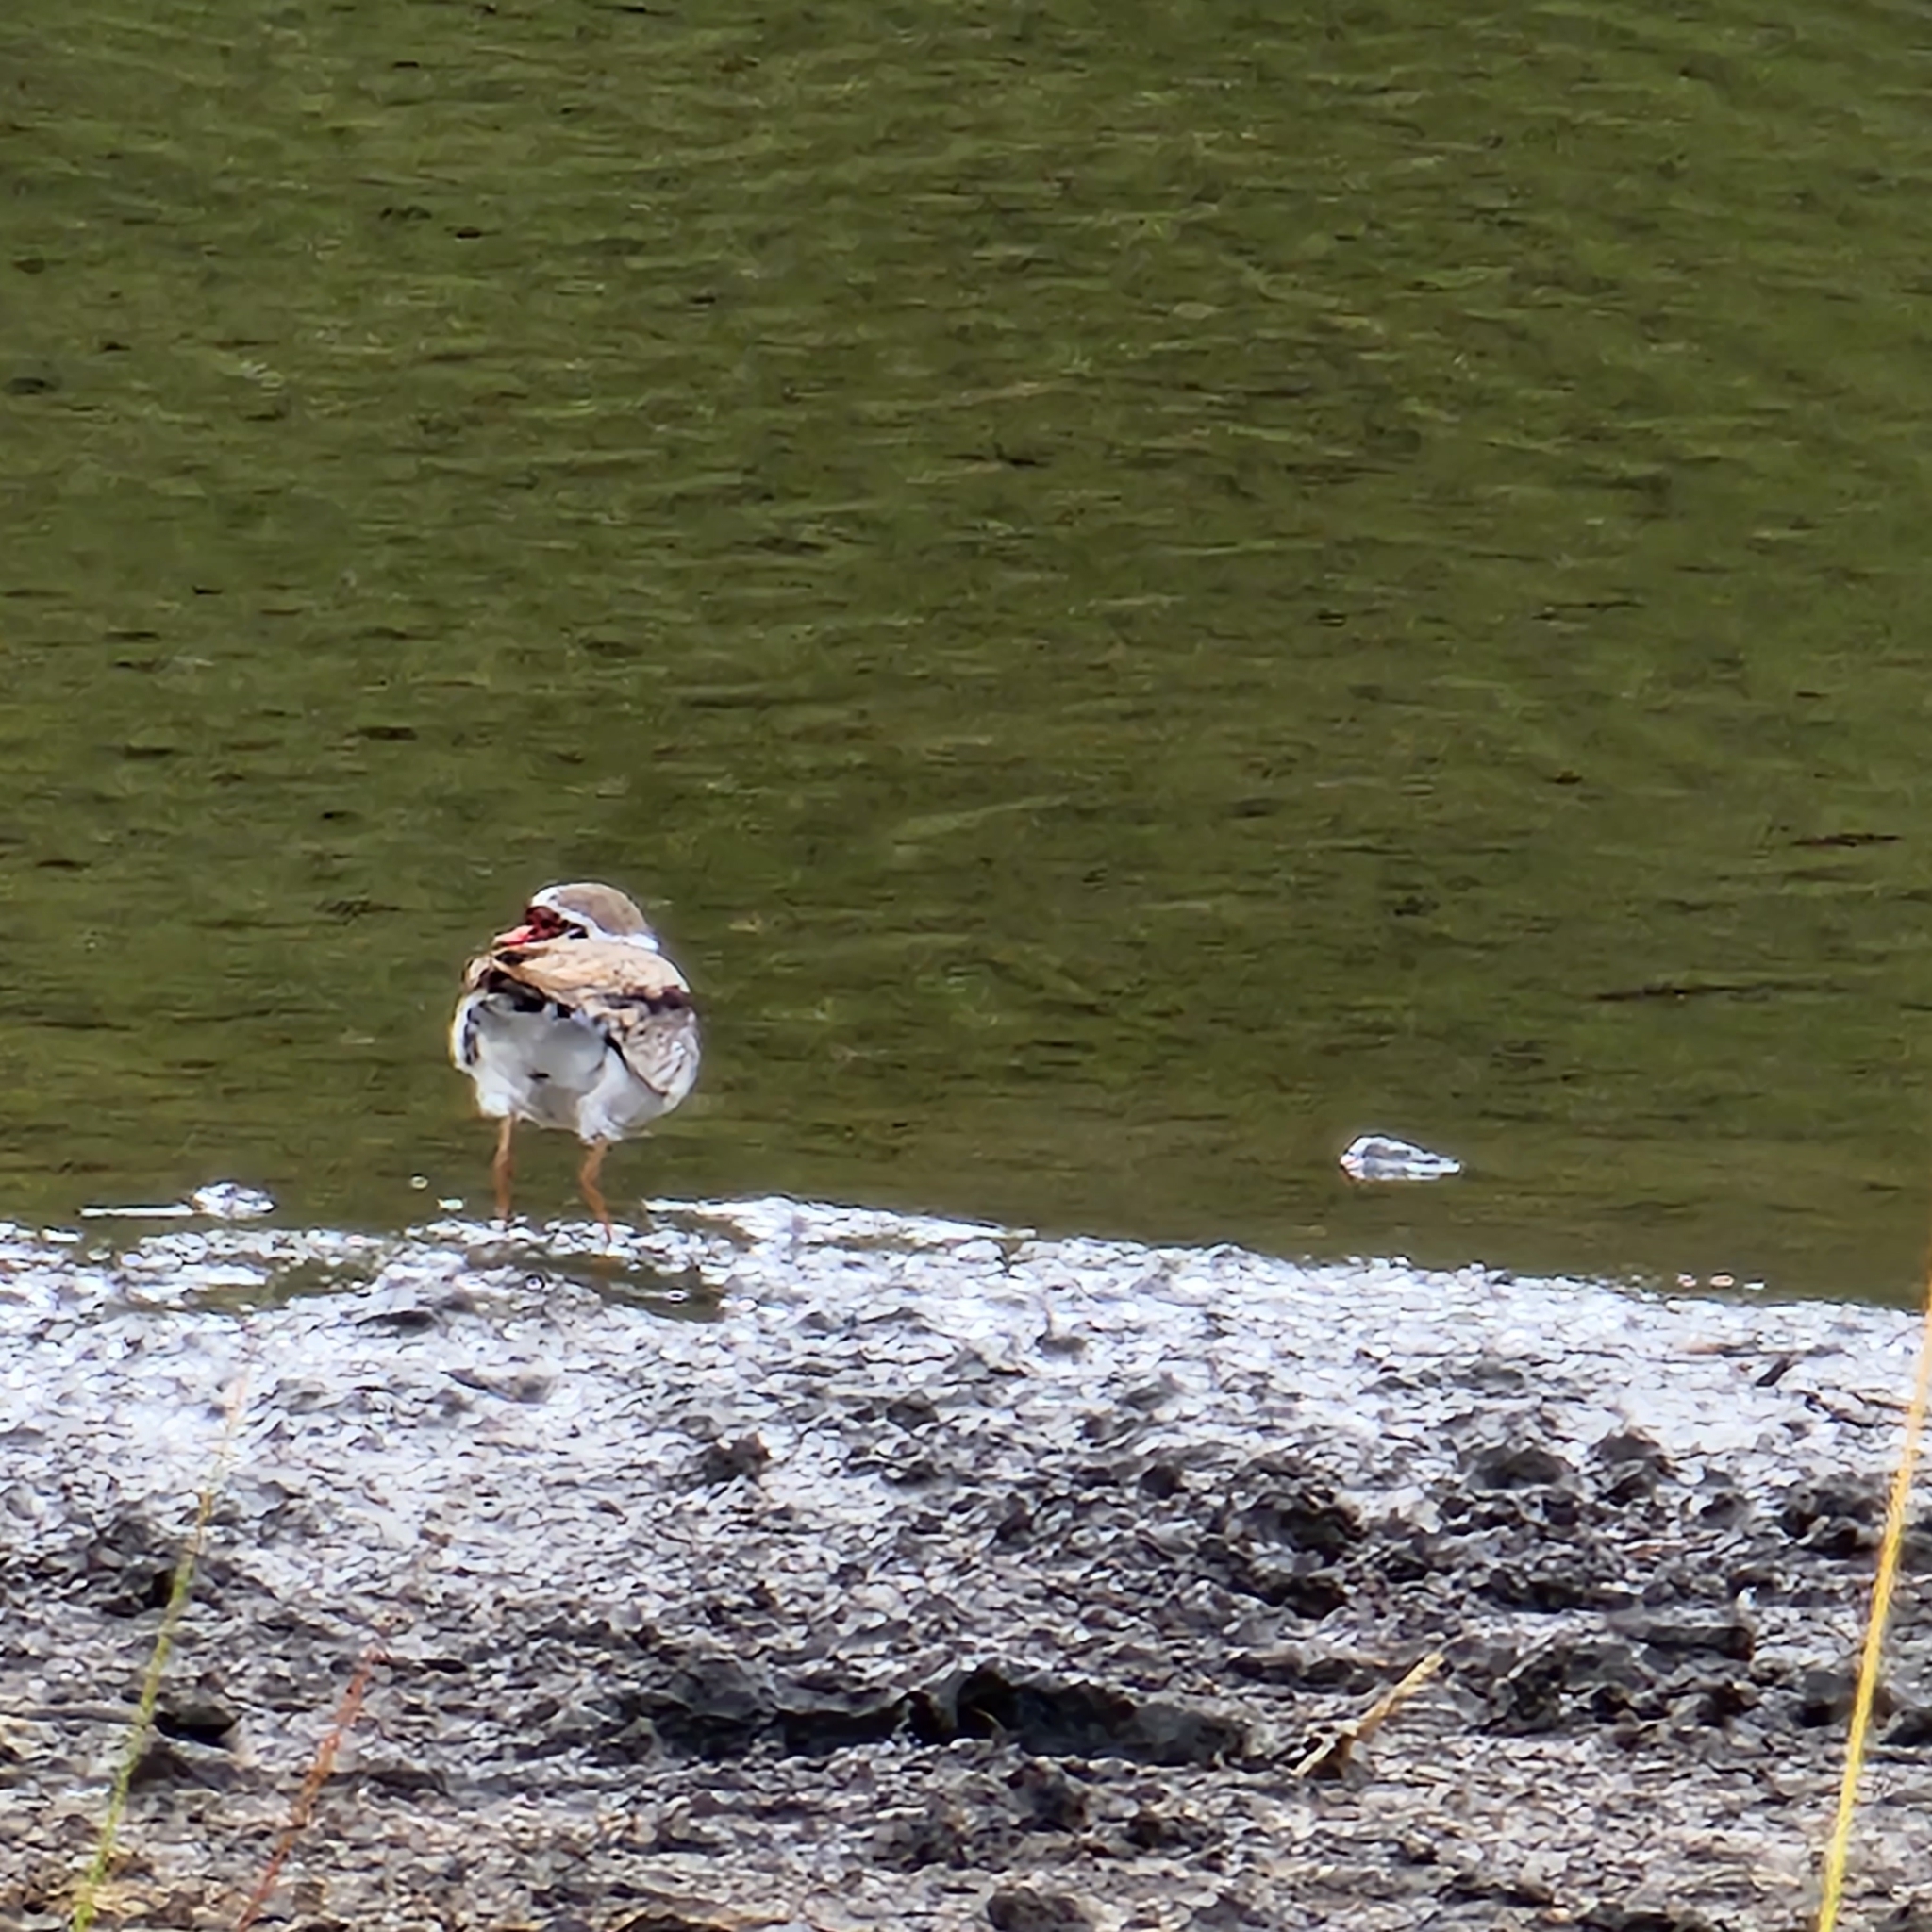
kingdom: Animalia
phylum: Chordata
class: Aves
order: Charadriiformes
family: Charadriidae
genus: Elseyornis
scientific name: Elseyornis melanops
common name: Black-fronted dotterel
